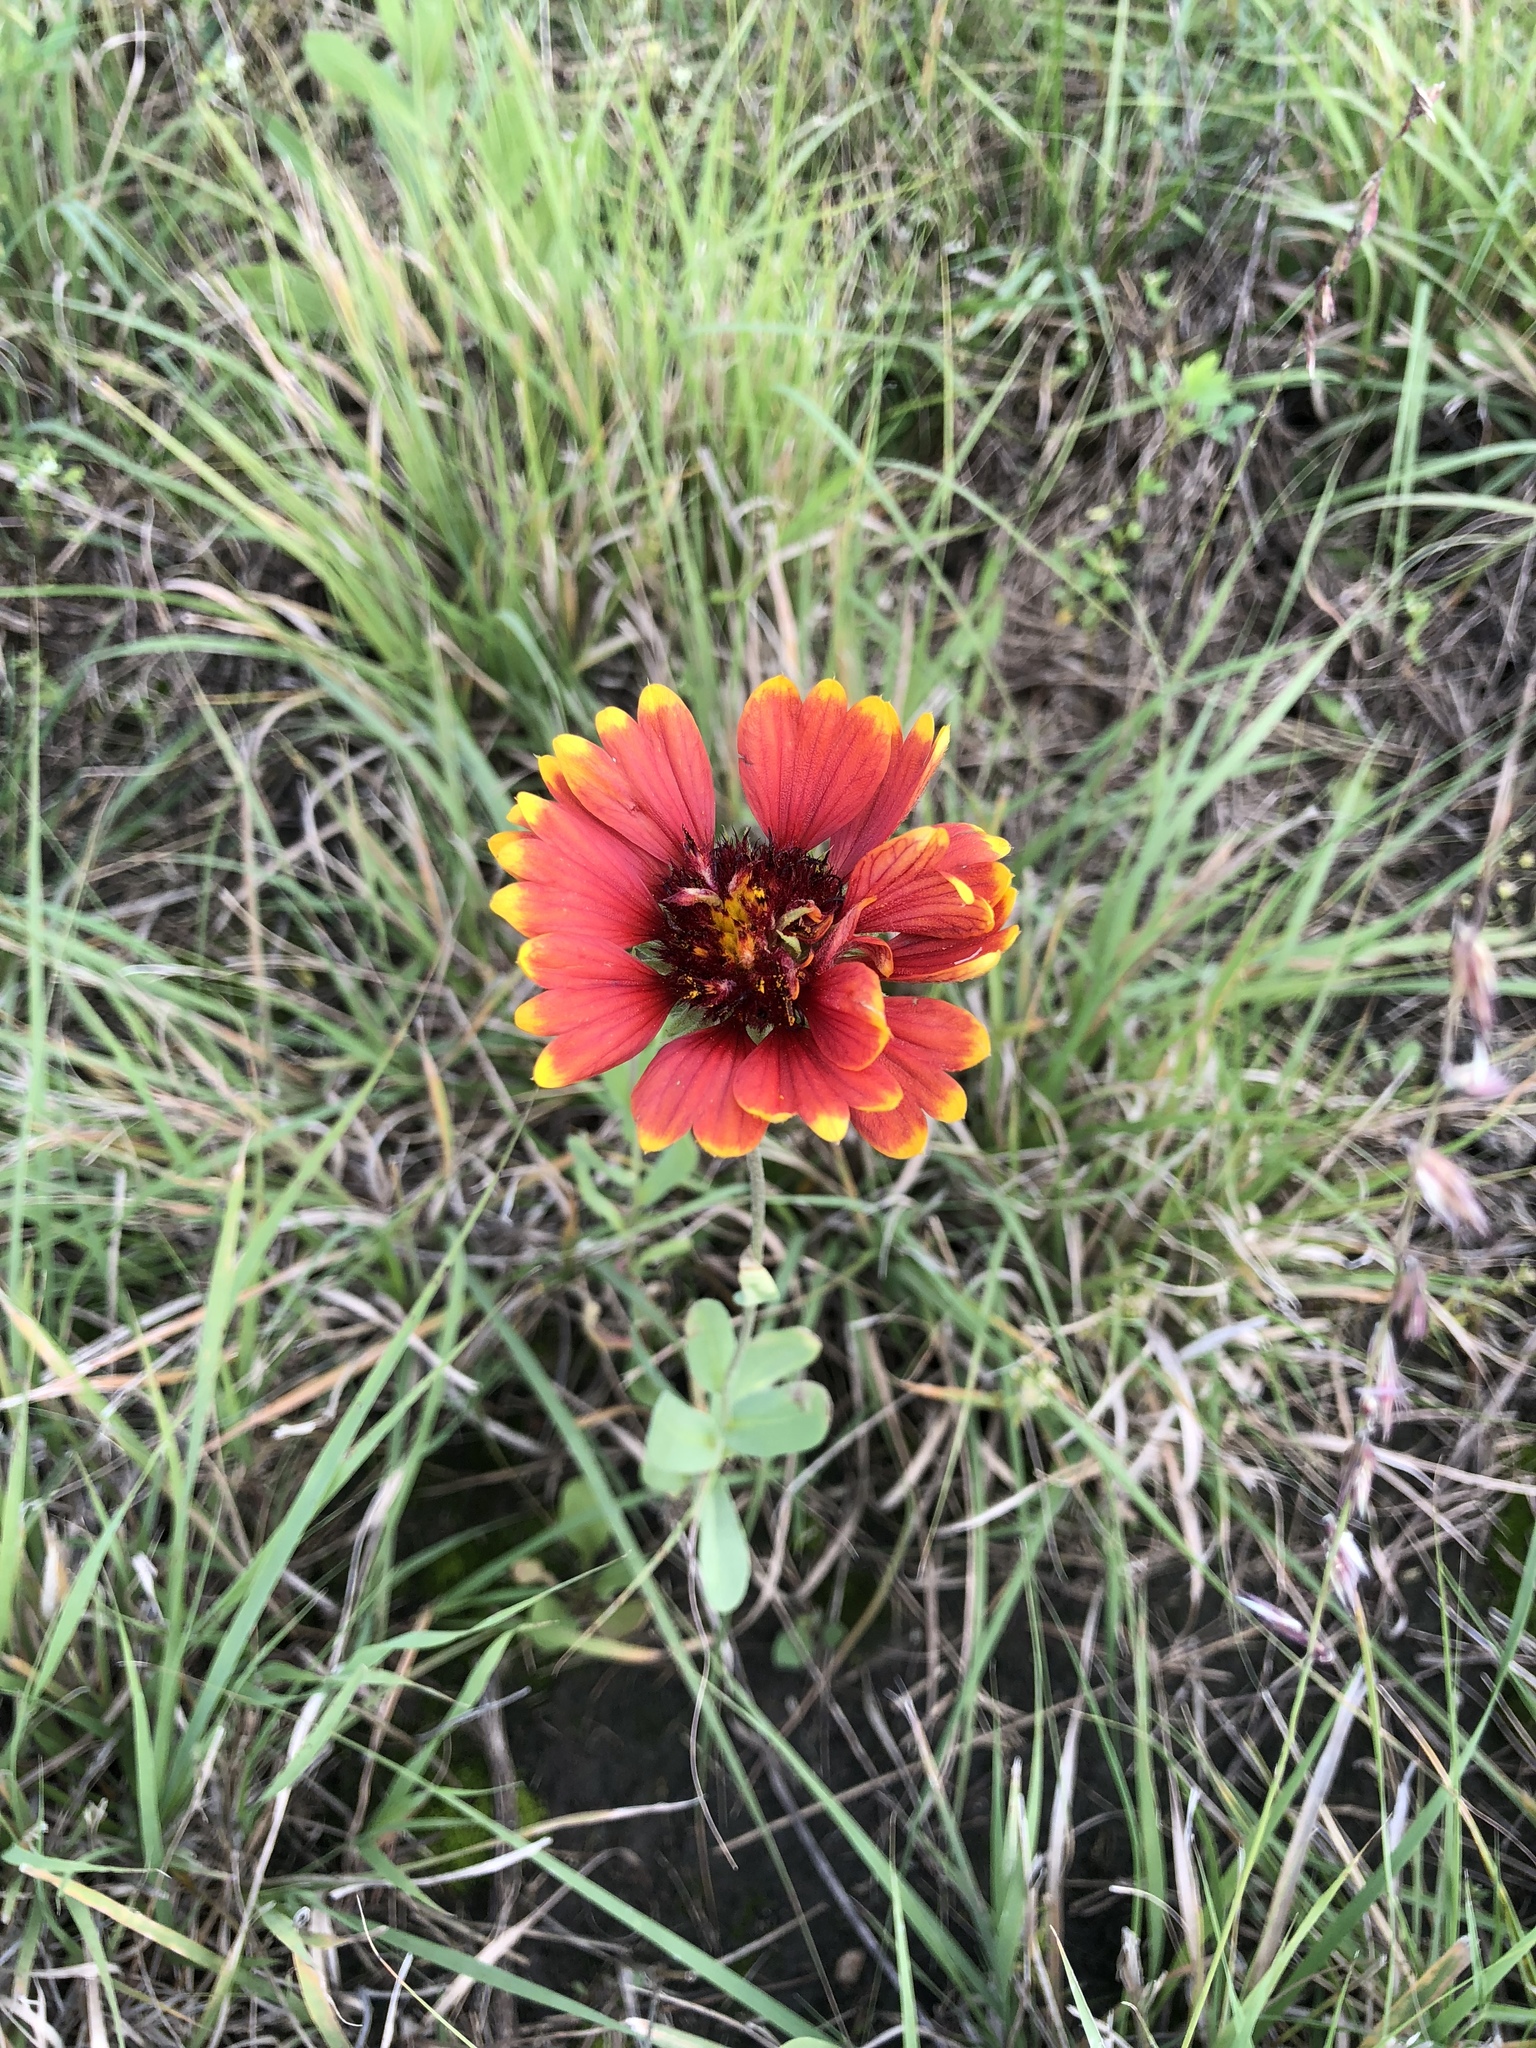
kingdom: Plantae
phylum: Tracheophyta
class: Magnoliopsida
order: Asterales
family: Asteraceae
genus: Gaillardia
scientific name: Gaillardia pulchella
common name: Firewheel
